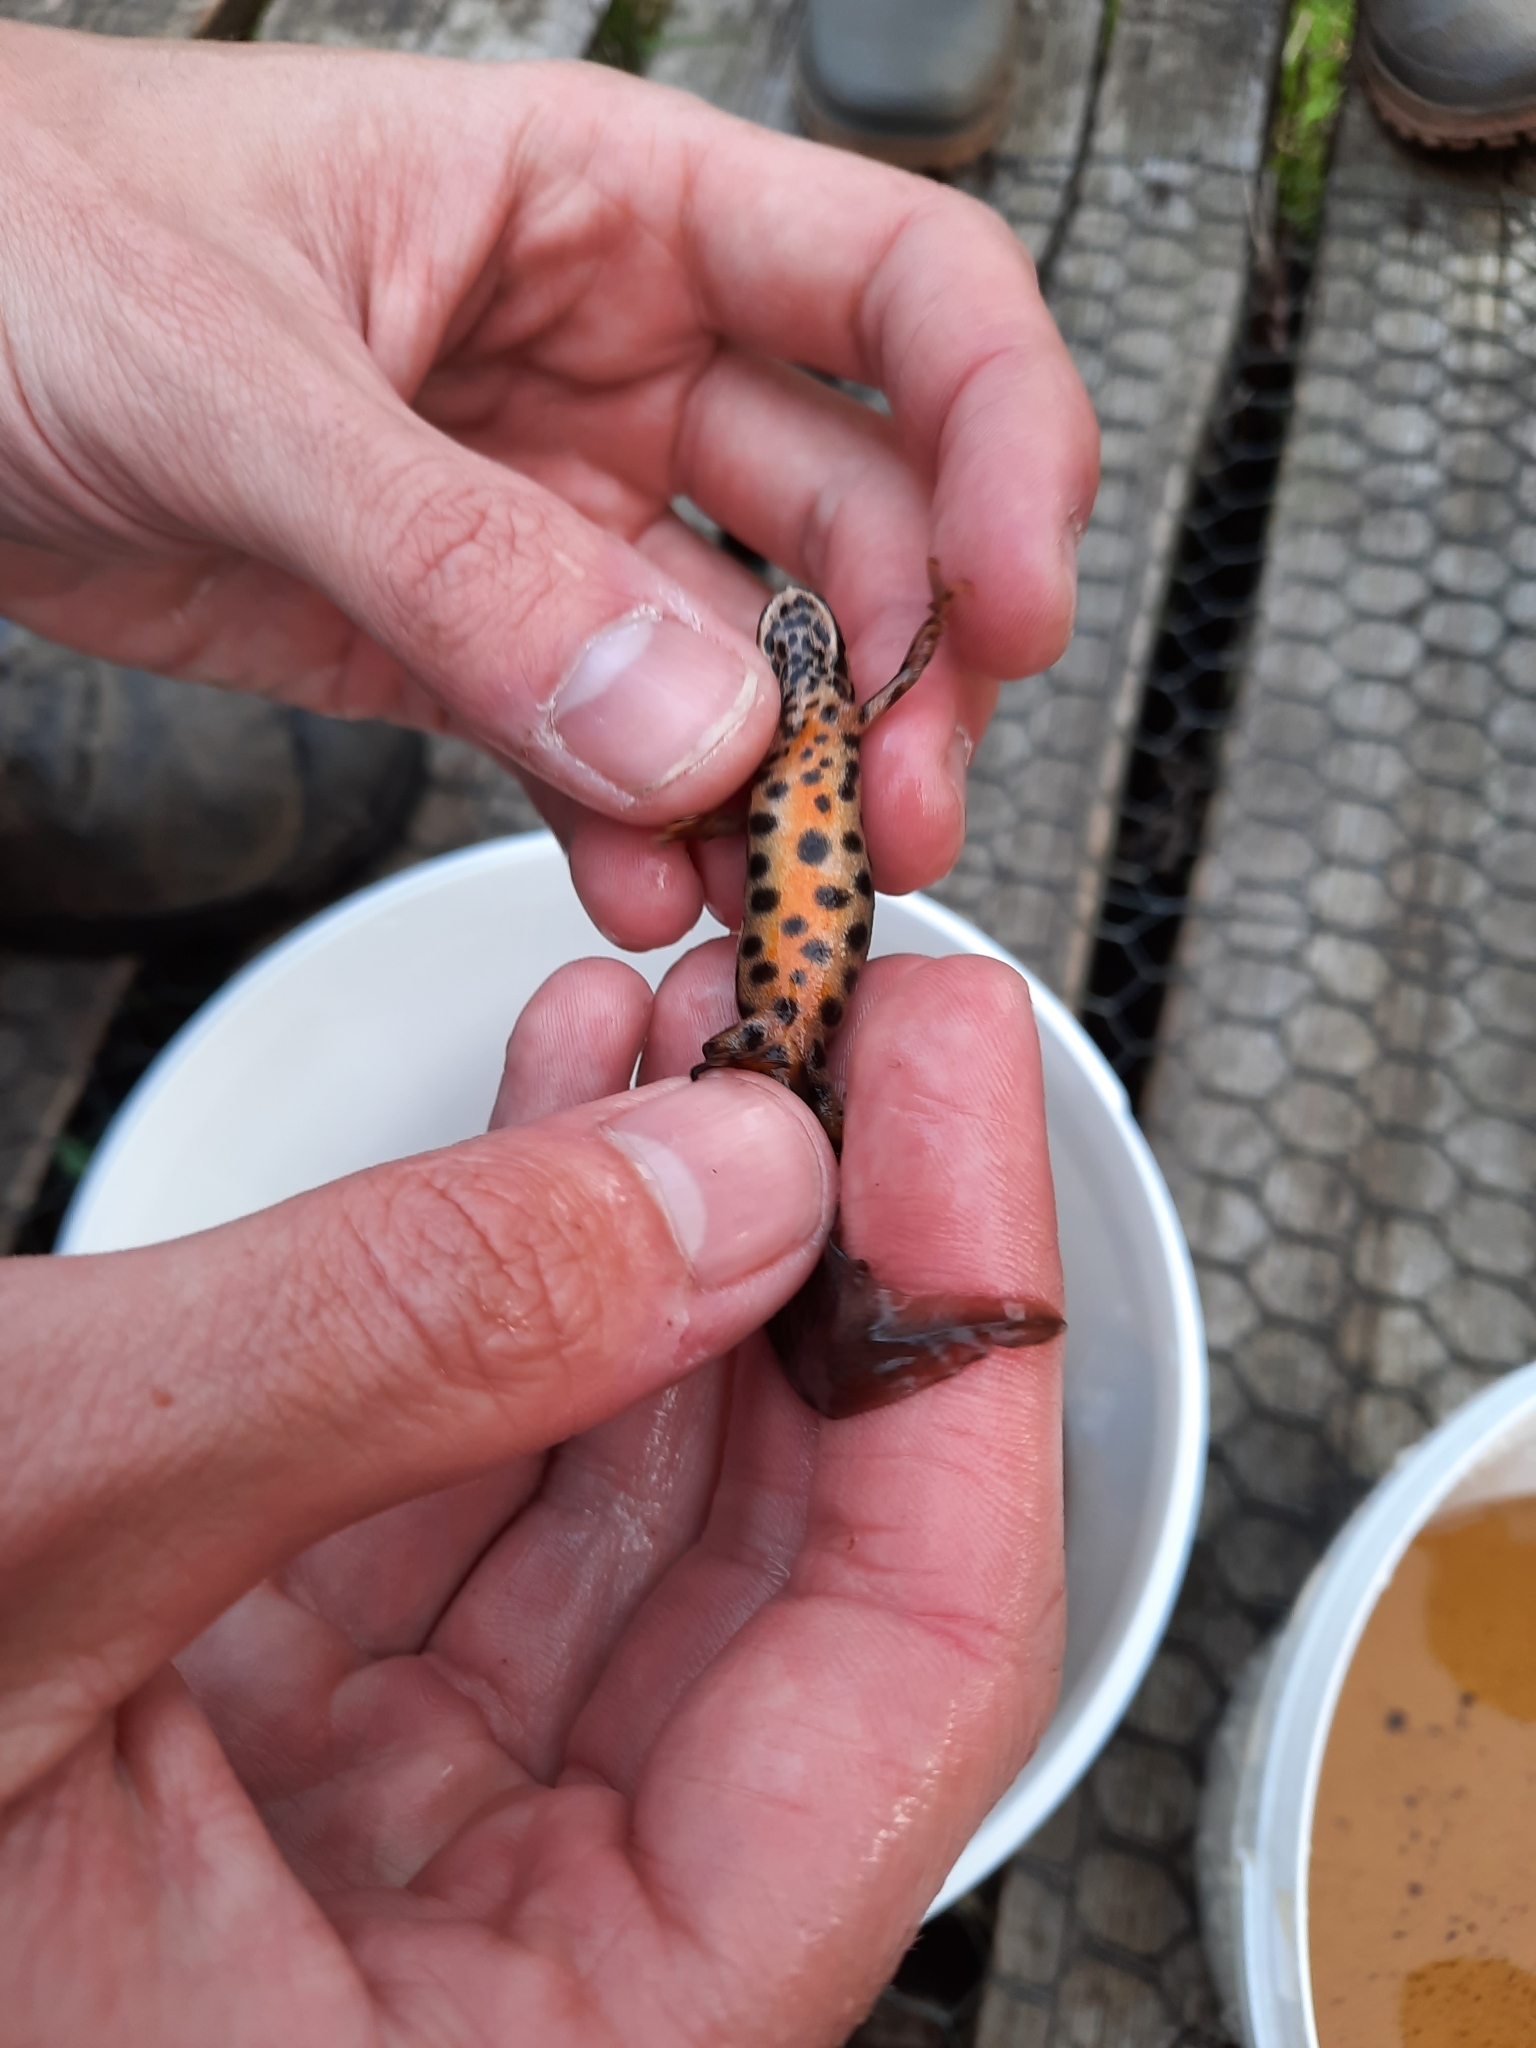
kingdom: Animalia
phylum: Chordata
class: Amphibia
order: Caudata
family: Salamandridae
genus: Lissotriton
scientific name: Lissotriton vulgaris
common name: Smooth newt
